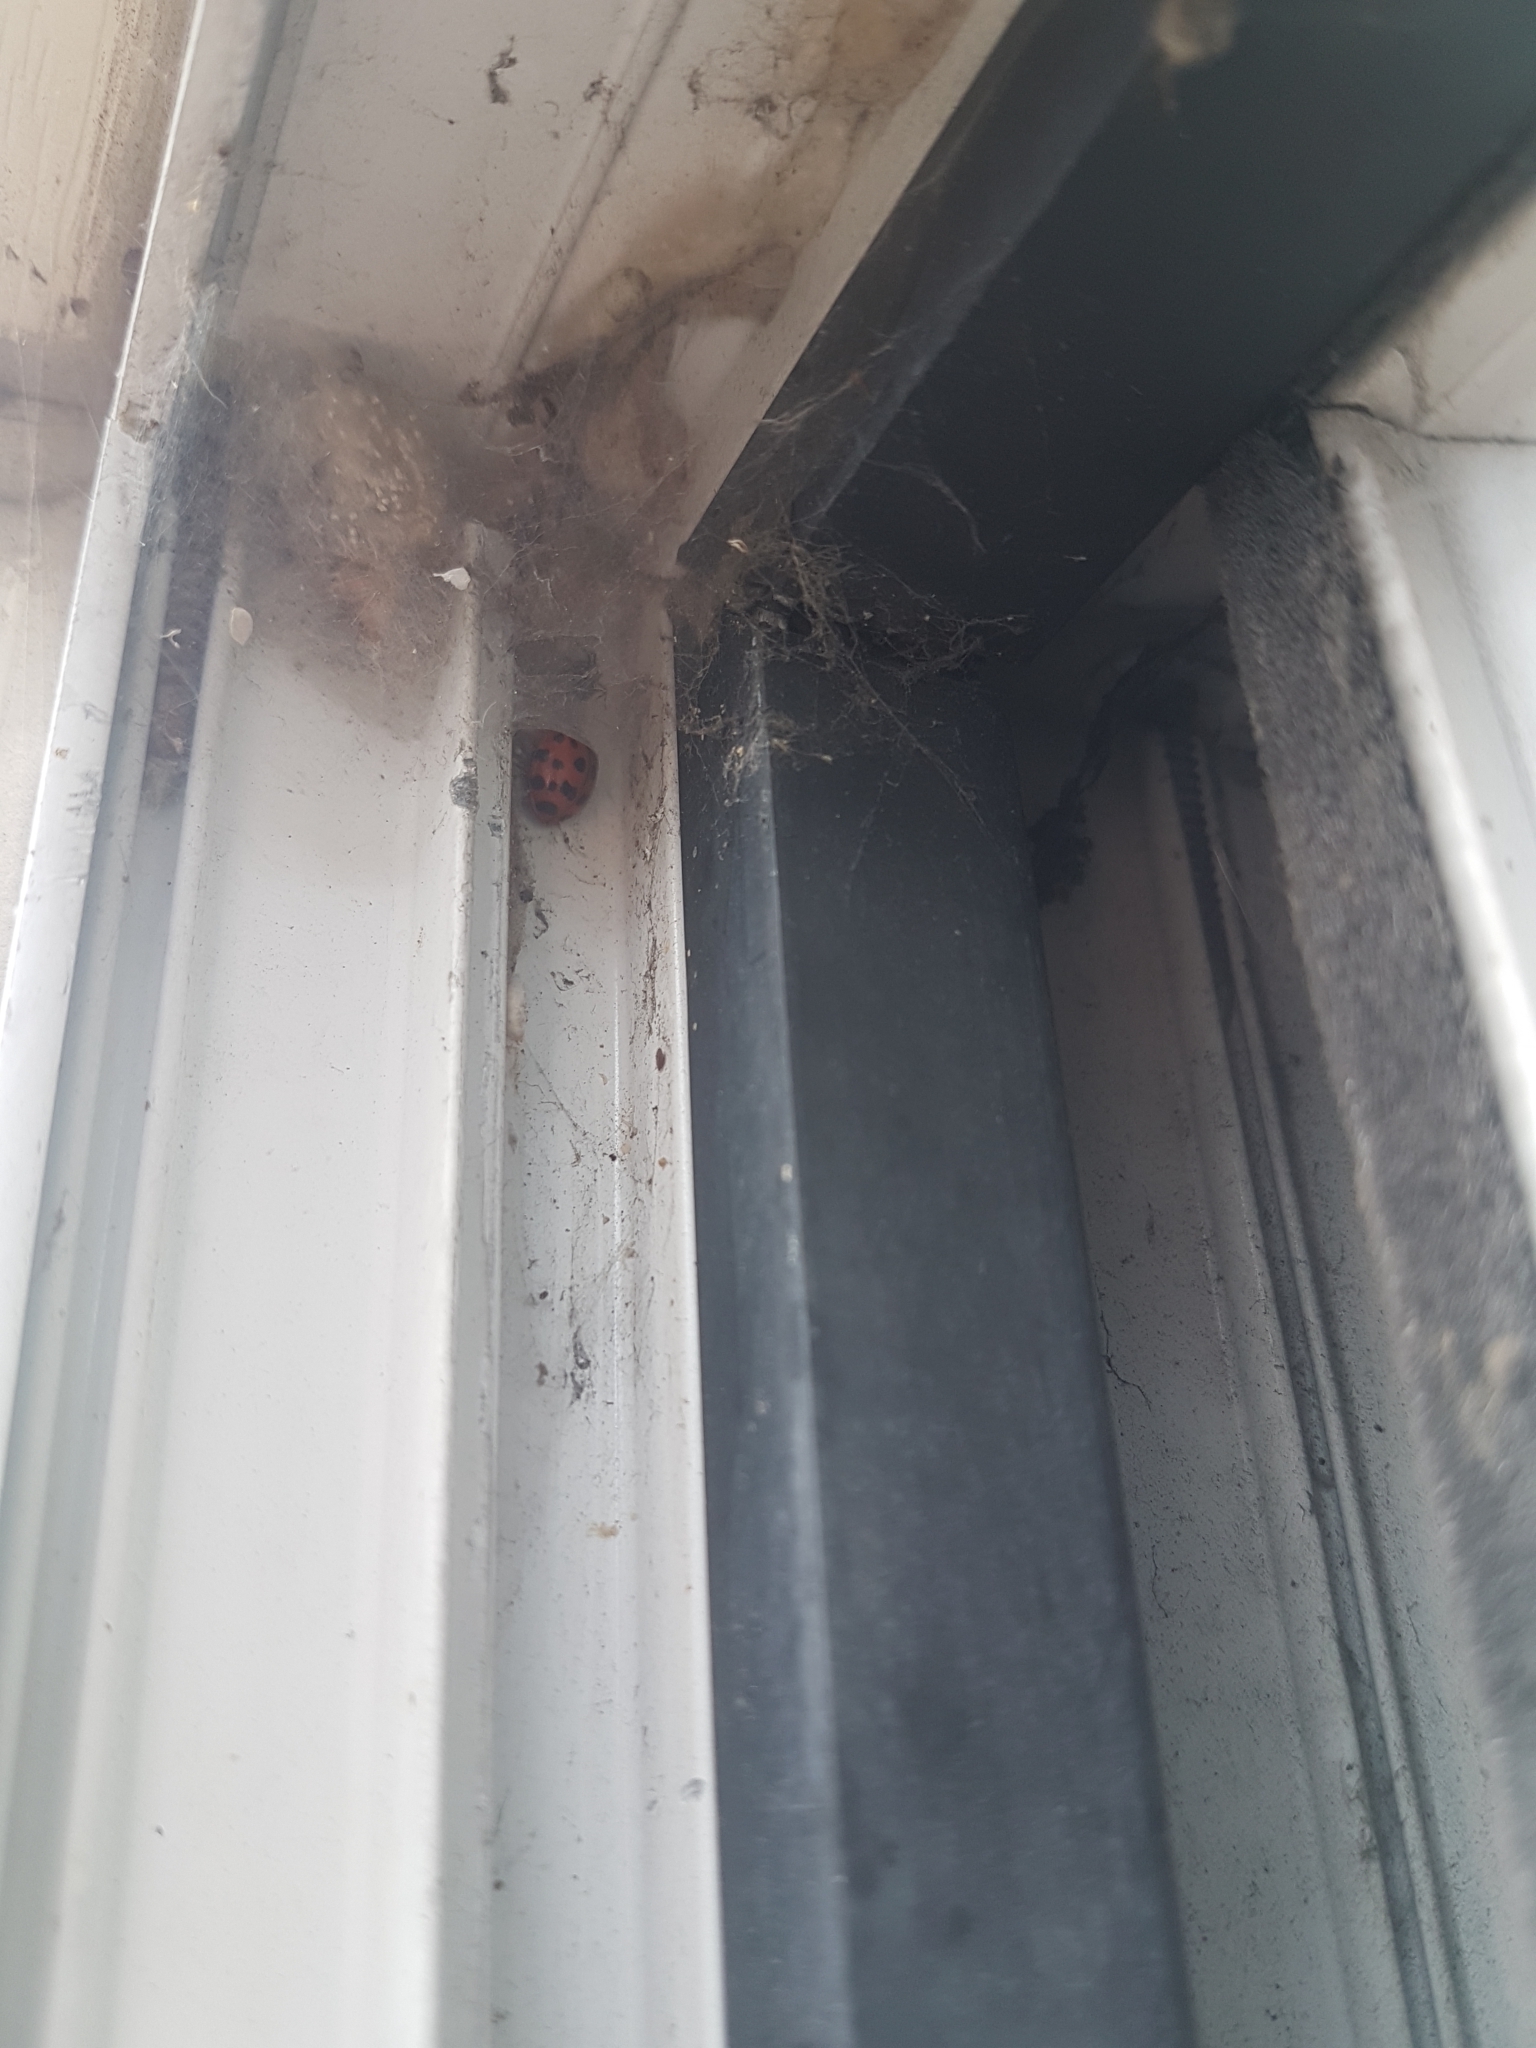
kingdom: Animalia
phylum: Arthropoda
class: Insecta
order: Coleoptera
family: Coccinellidae
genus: Harmonia
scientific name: Harmonia axyridis
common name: Harlequin ladybird
